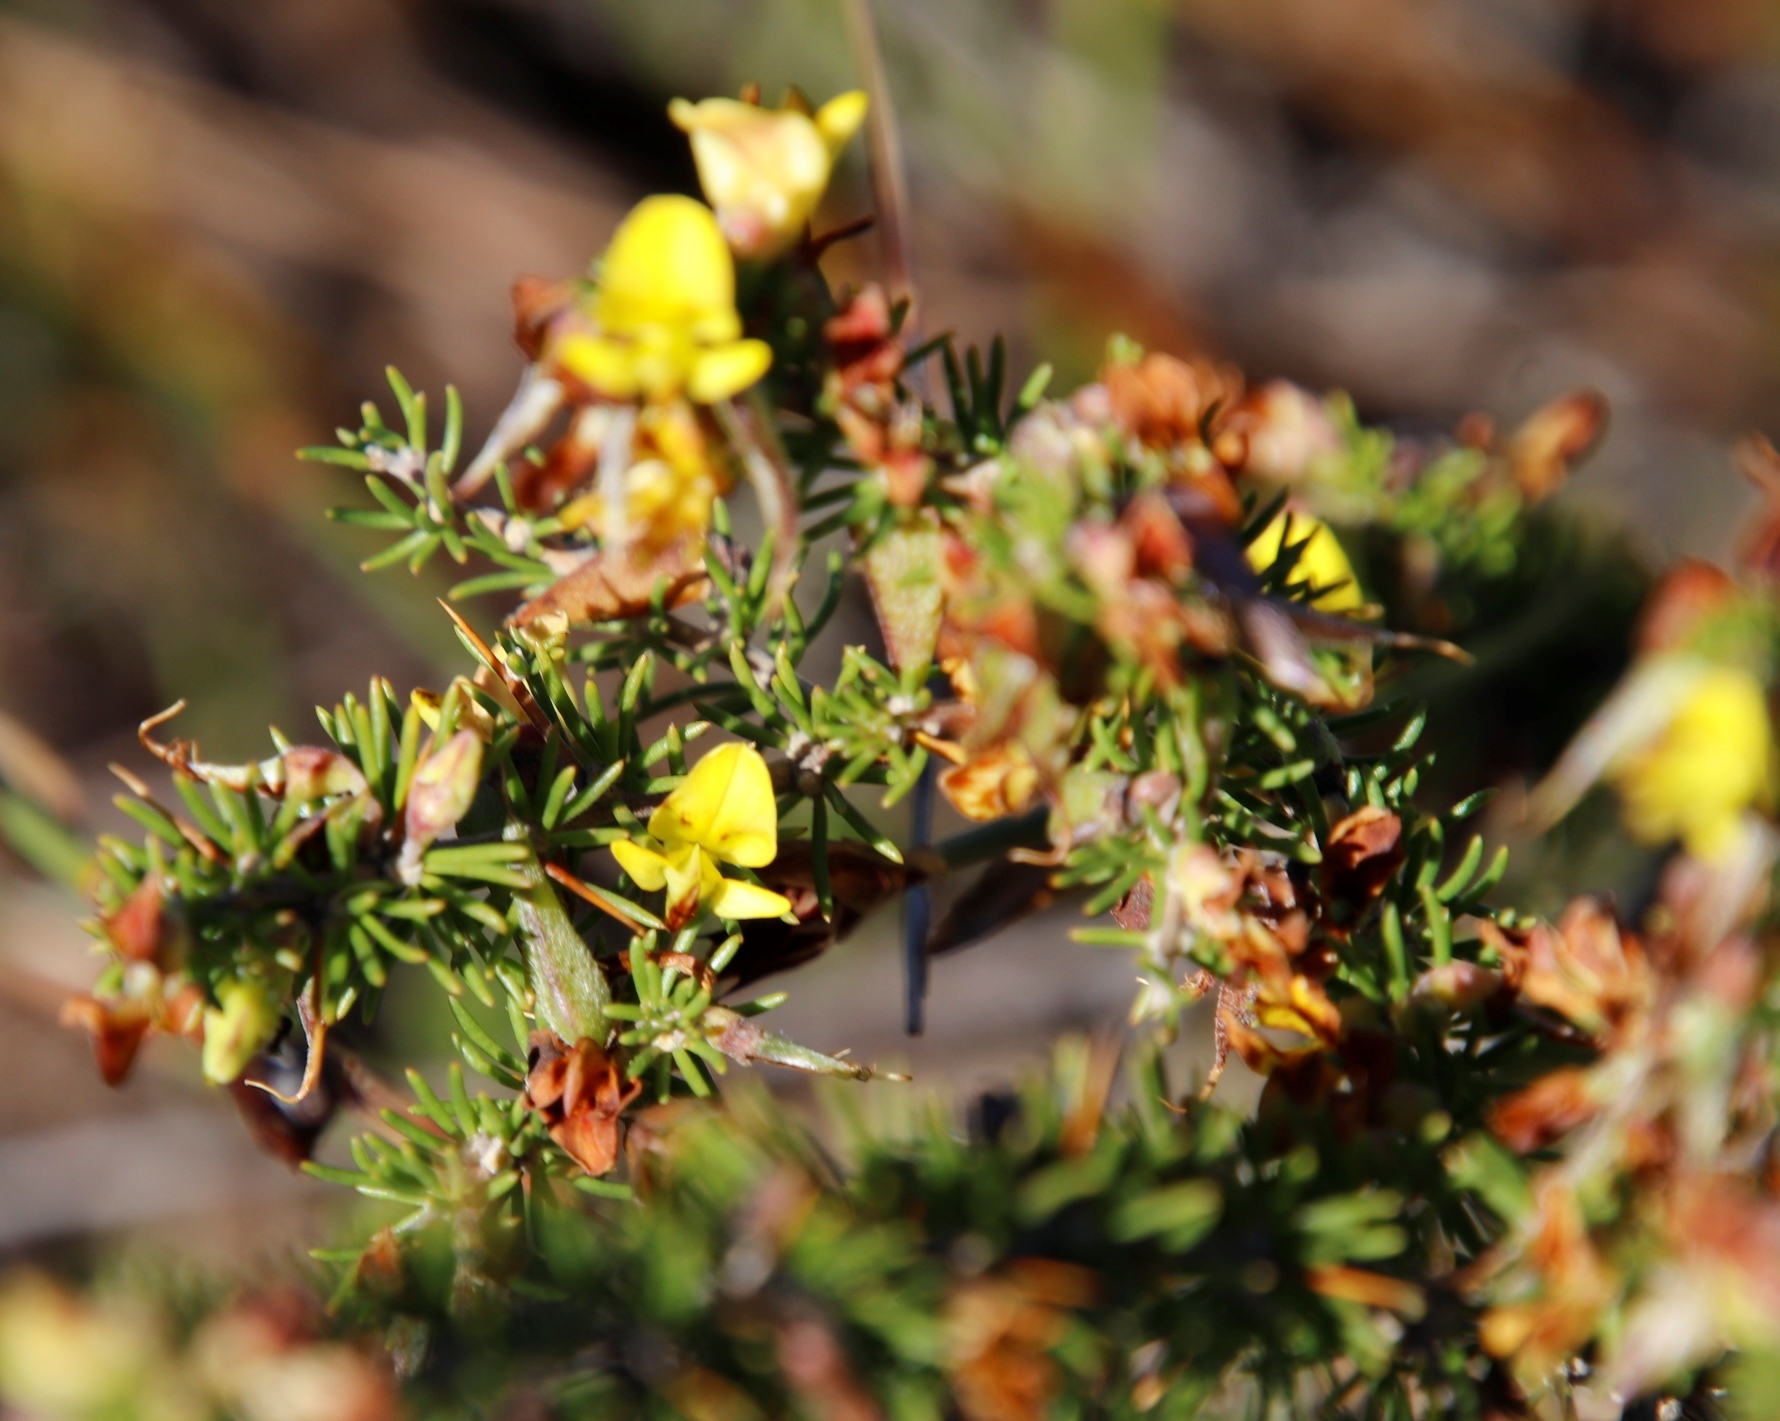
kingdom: Plantae
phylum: Tracheophyta
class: Magnoliopsida
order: Fabales
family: Fabaceae
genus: Aspalathus
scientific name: Aspalathus spinosa
